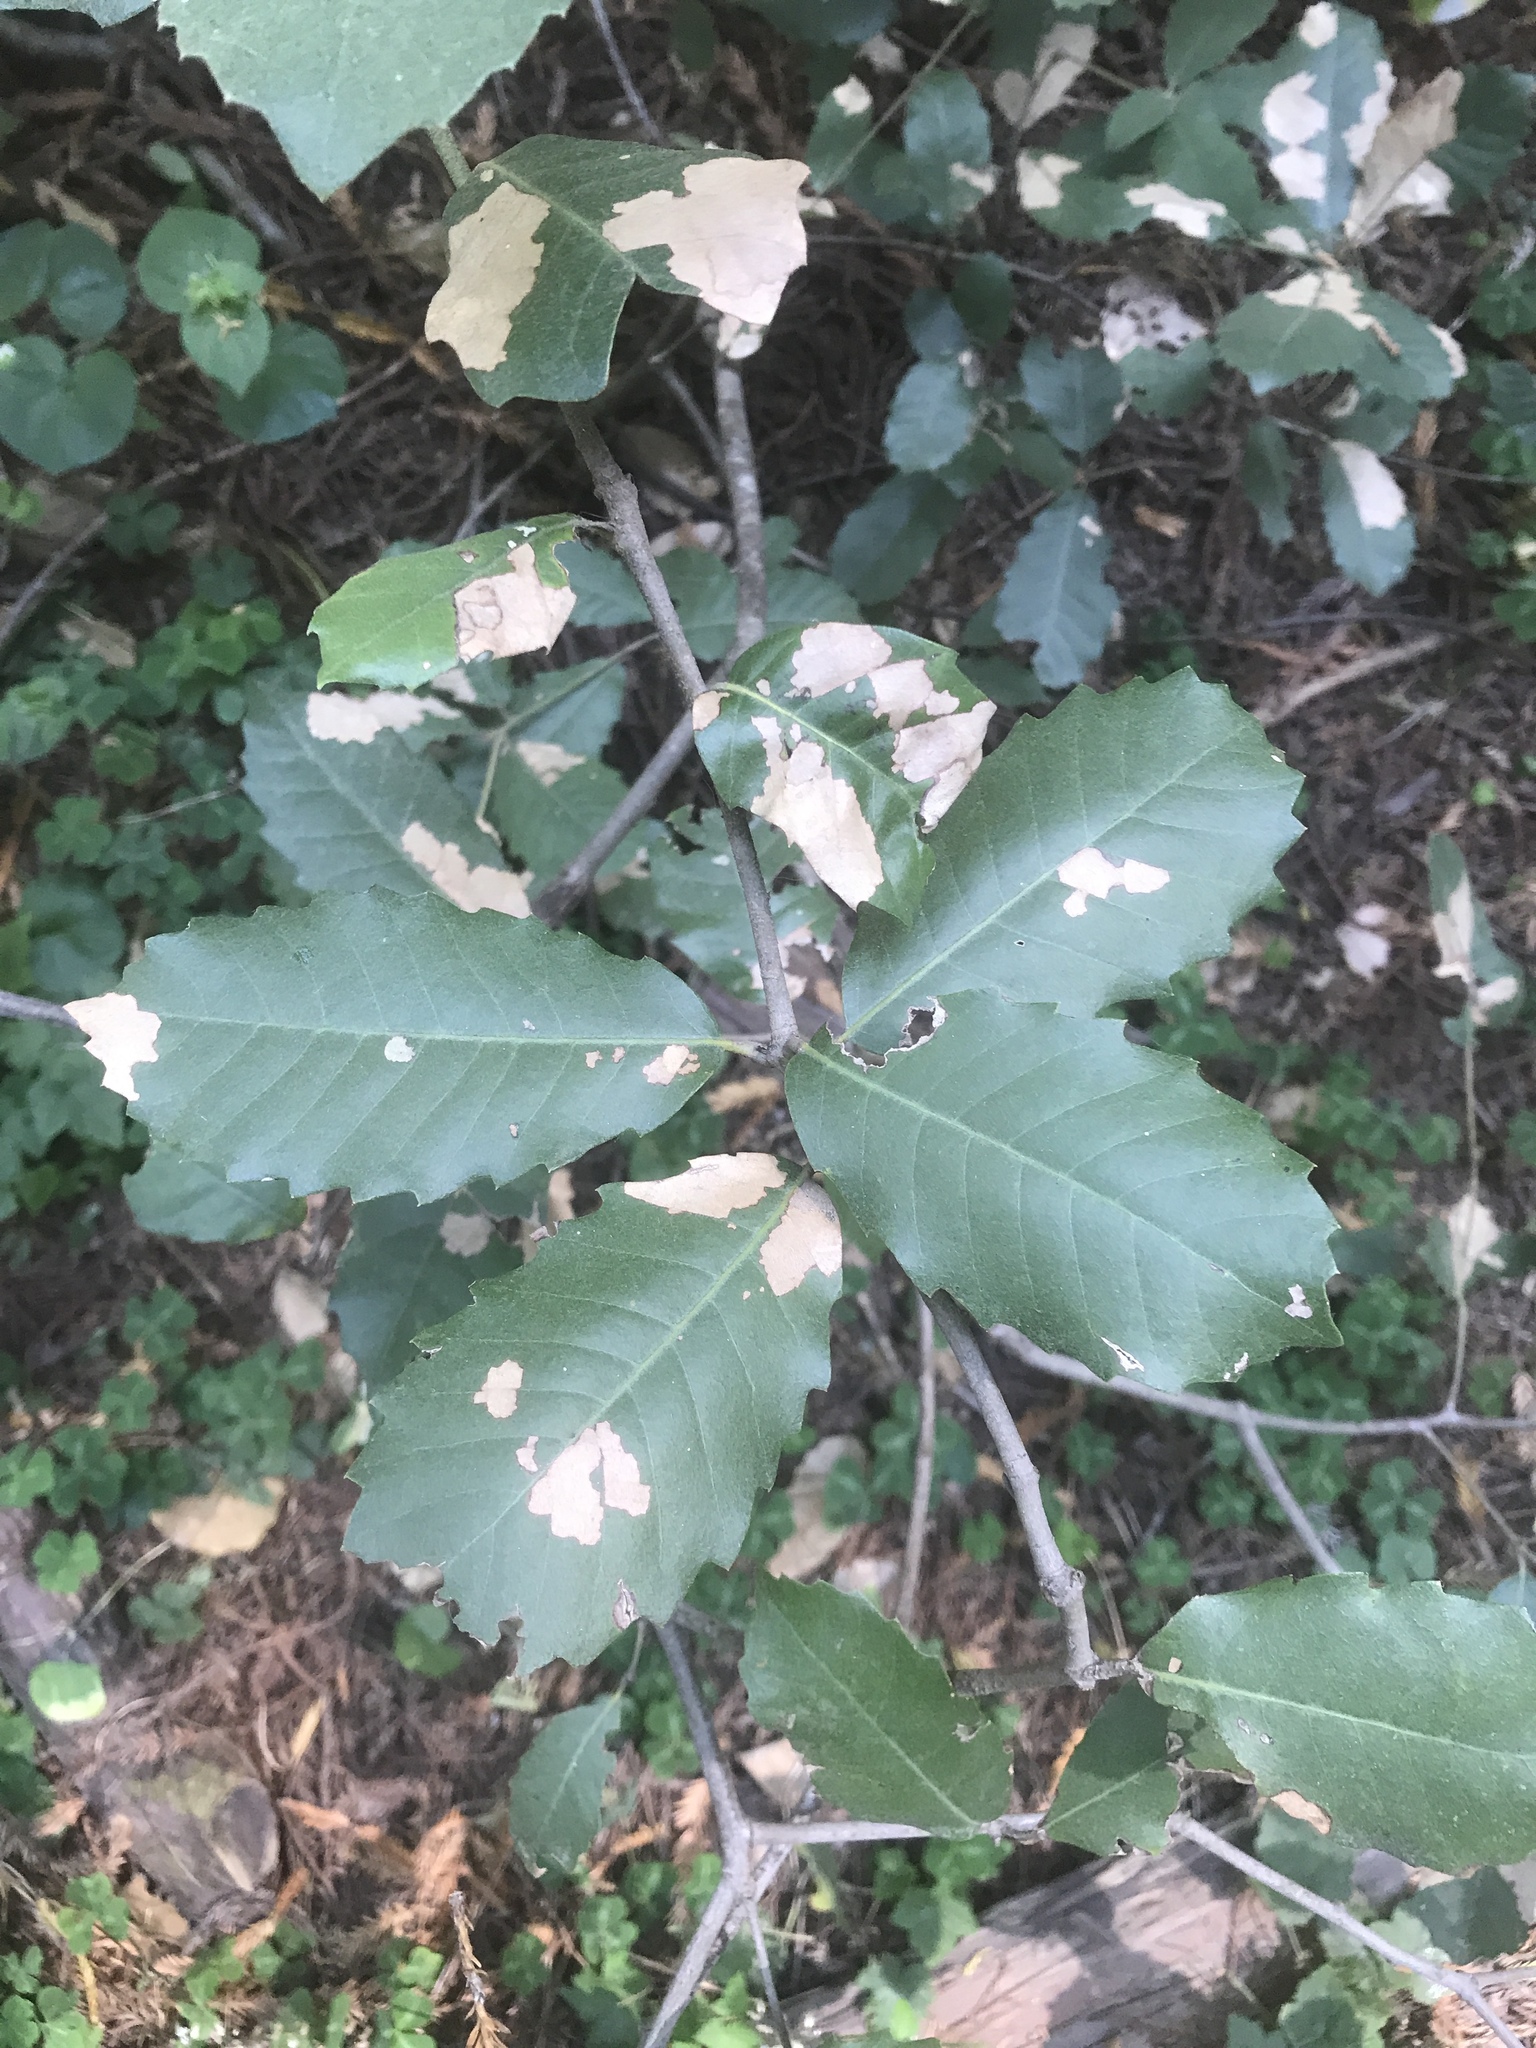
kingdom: Plantae
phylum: Tracheophyta
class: Magnoliopsida
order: Fagales
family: Fagaceae
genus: Notholithocarpus
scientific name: Notholithocarpus densiflorus
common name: Tan bark oak
